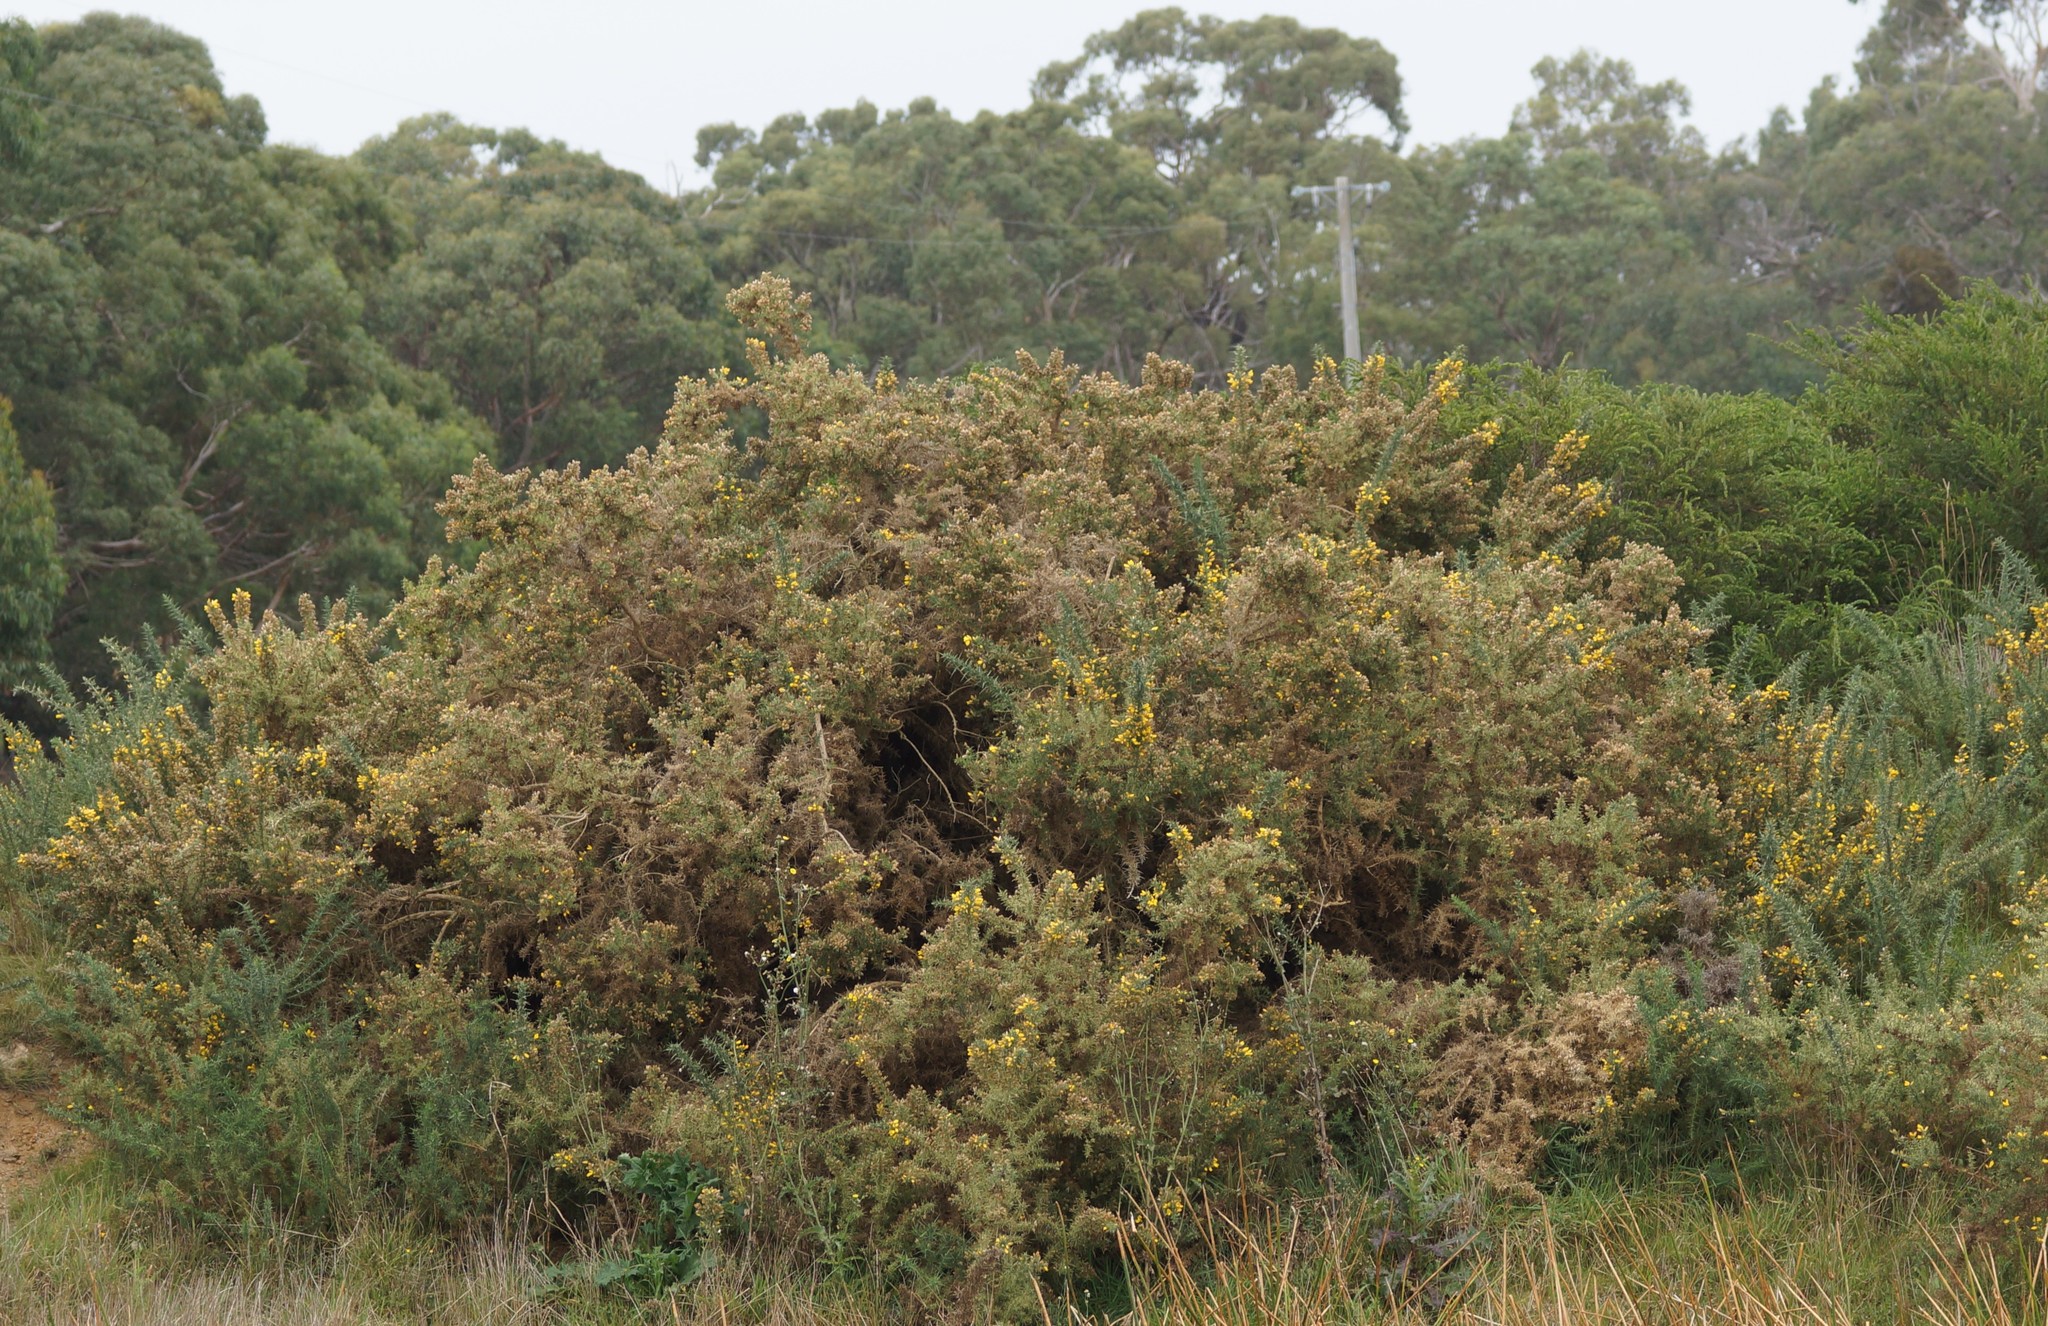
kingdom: Plantae
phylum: Tracheophyta
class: Magnoliopsida
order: Fabales
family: Fabaceae
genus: Ulex
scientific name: Ulex europaeus
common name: Common gorse
